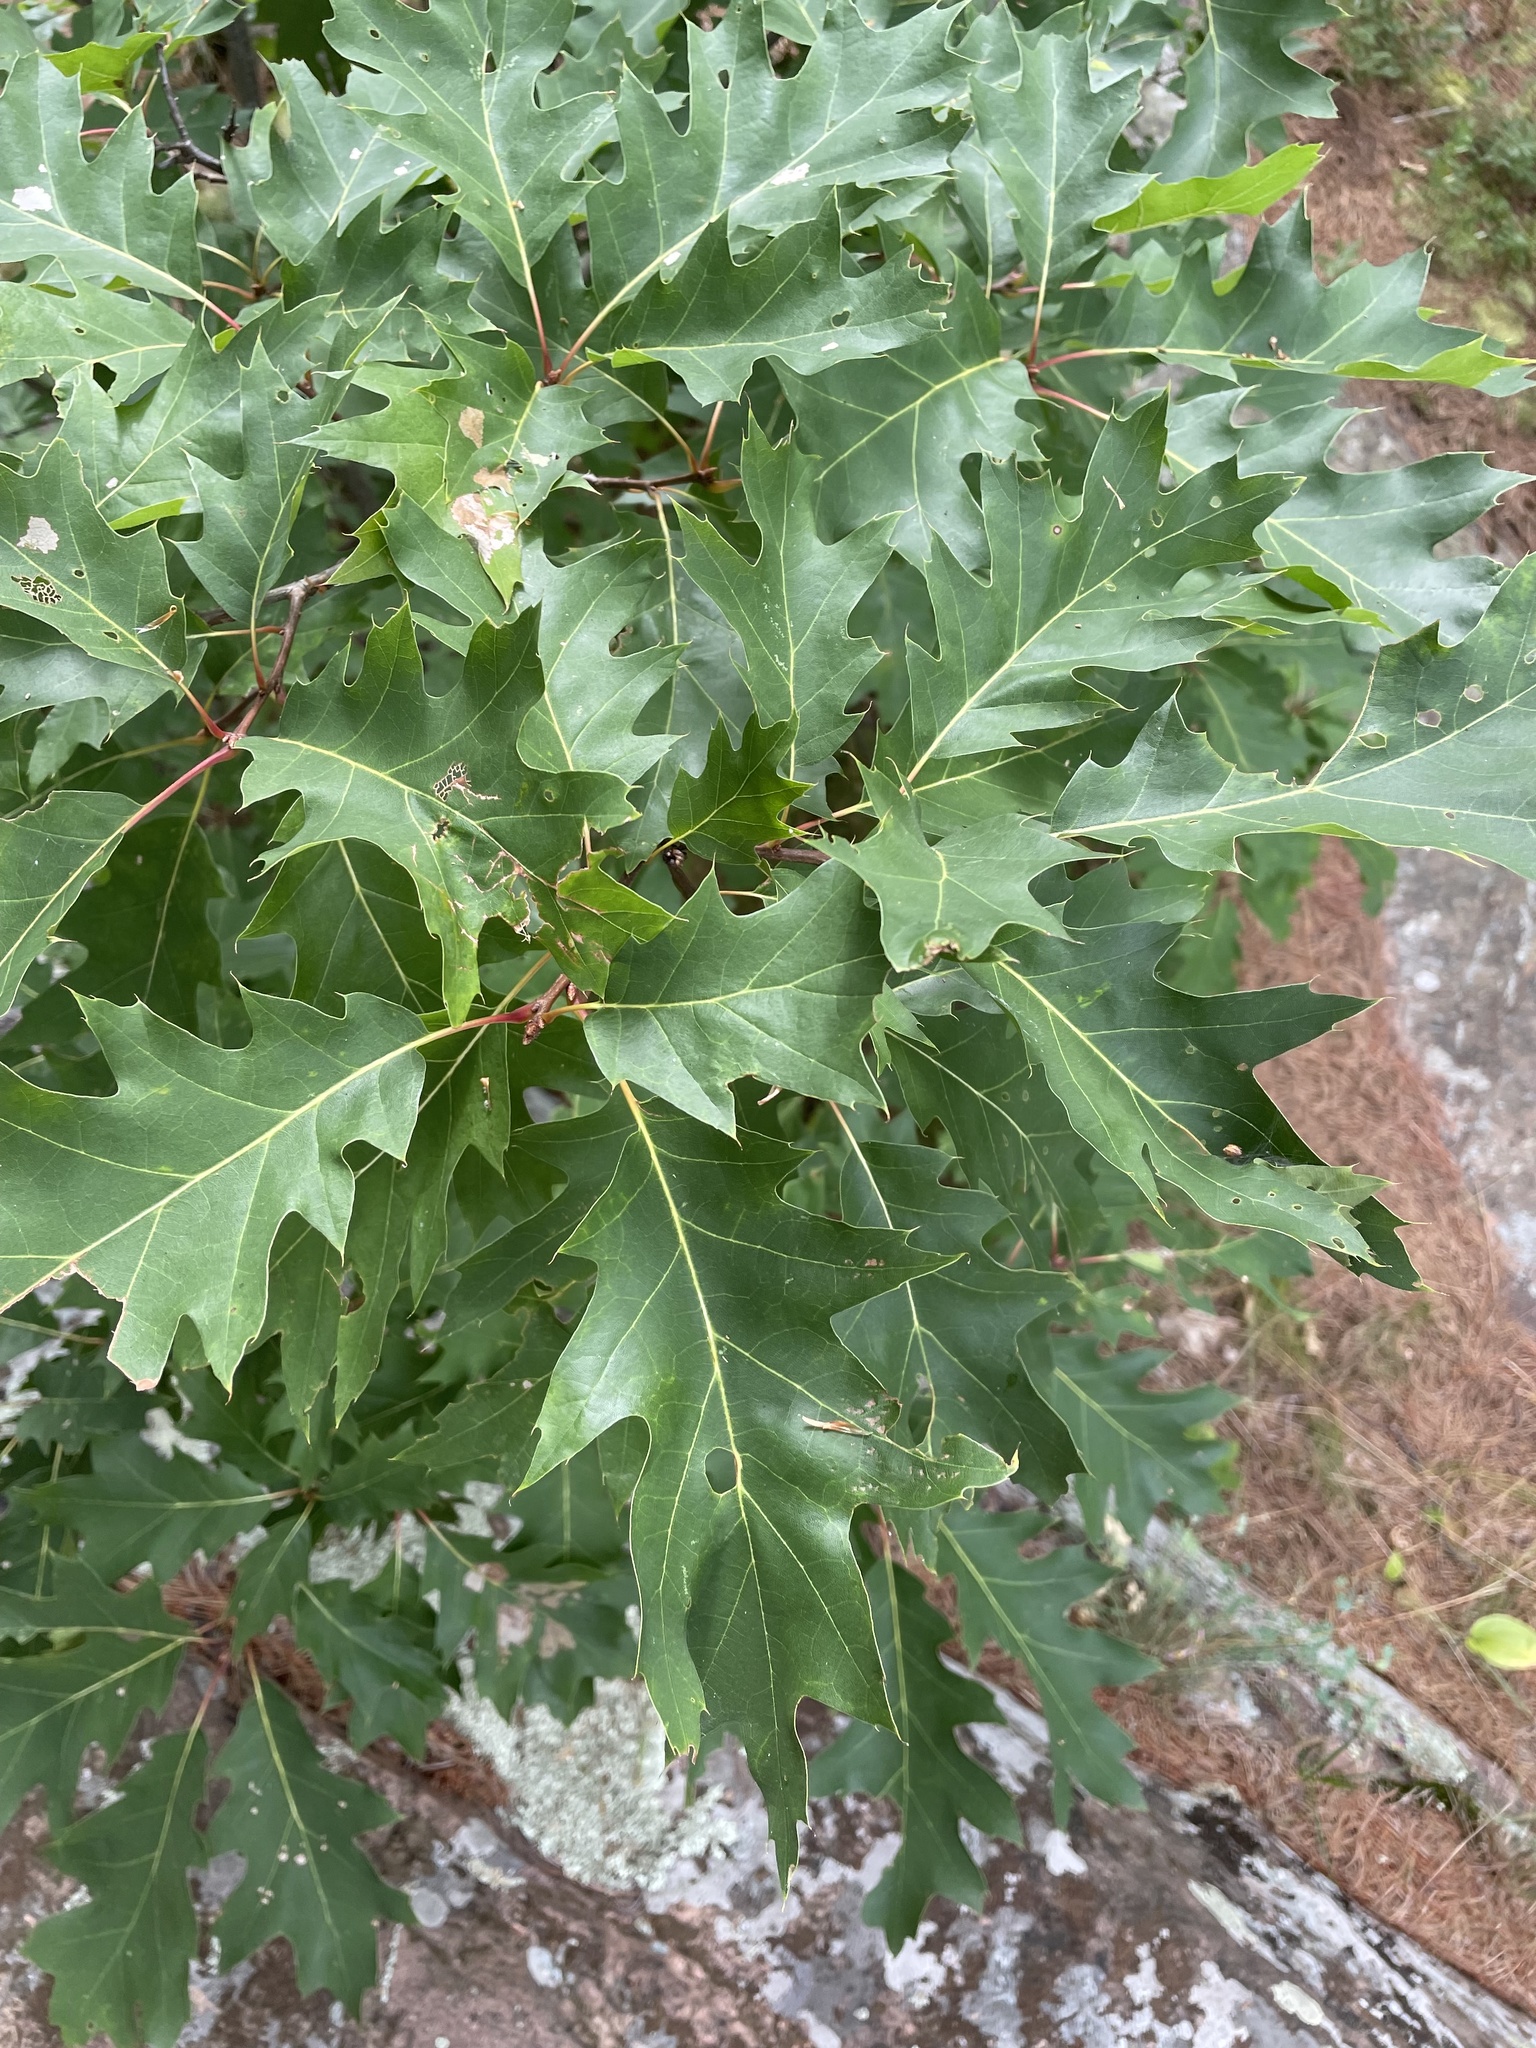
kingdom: Plantae
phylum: Tracheophyta
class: Magnoliopsida
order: Fagales
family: Fagaceae
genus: Quercus
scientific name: Quercus rubra
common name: Red oak
